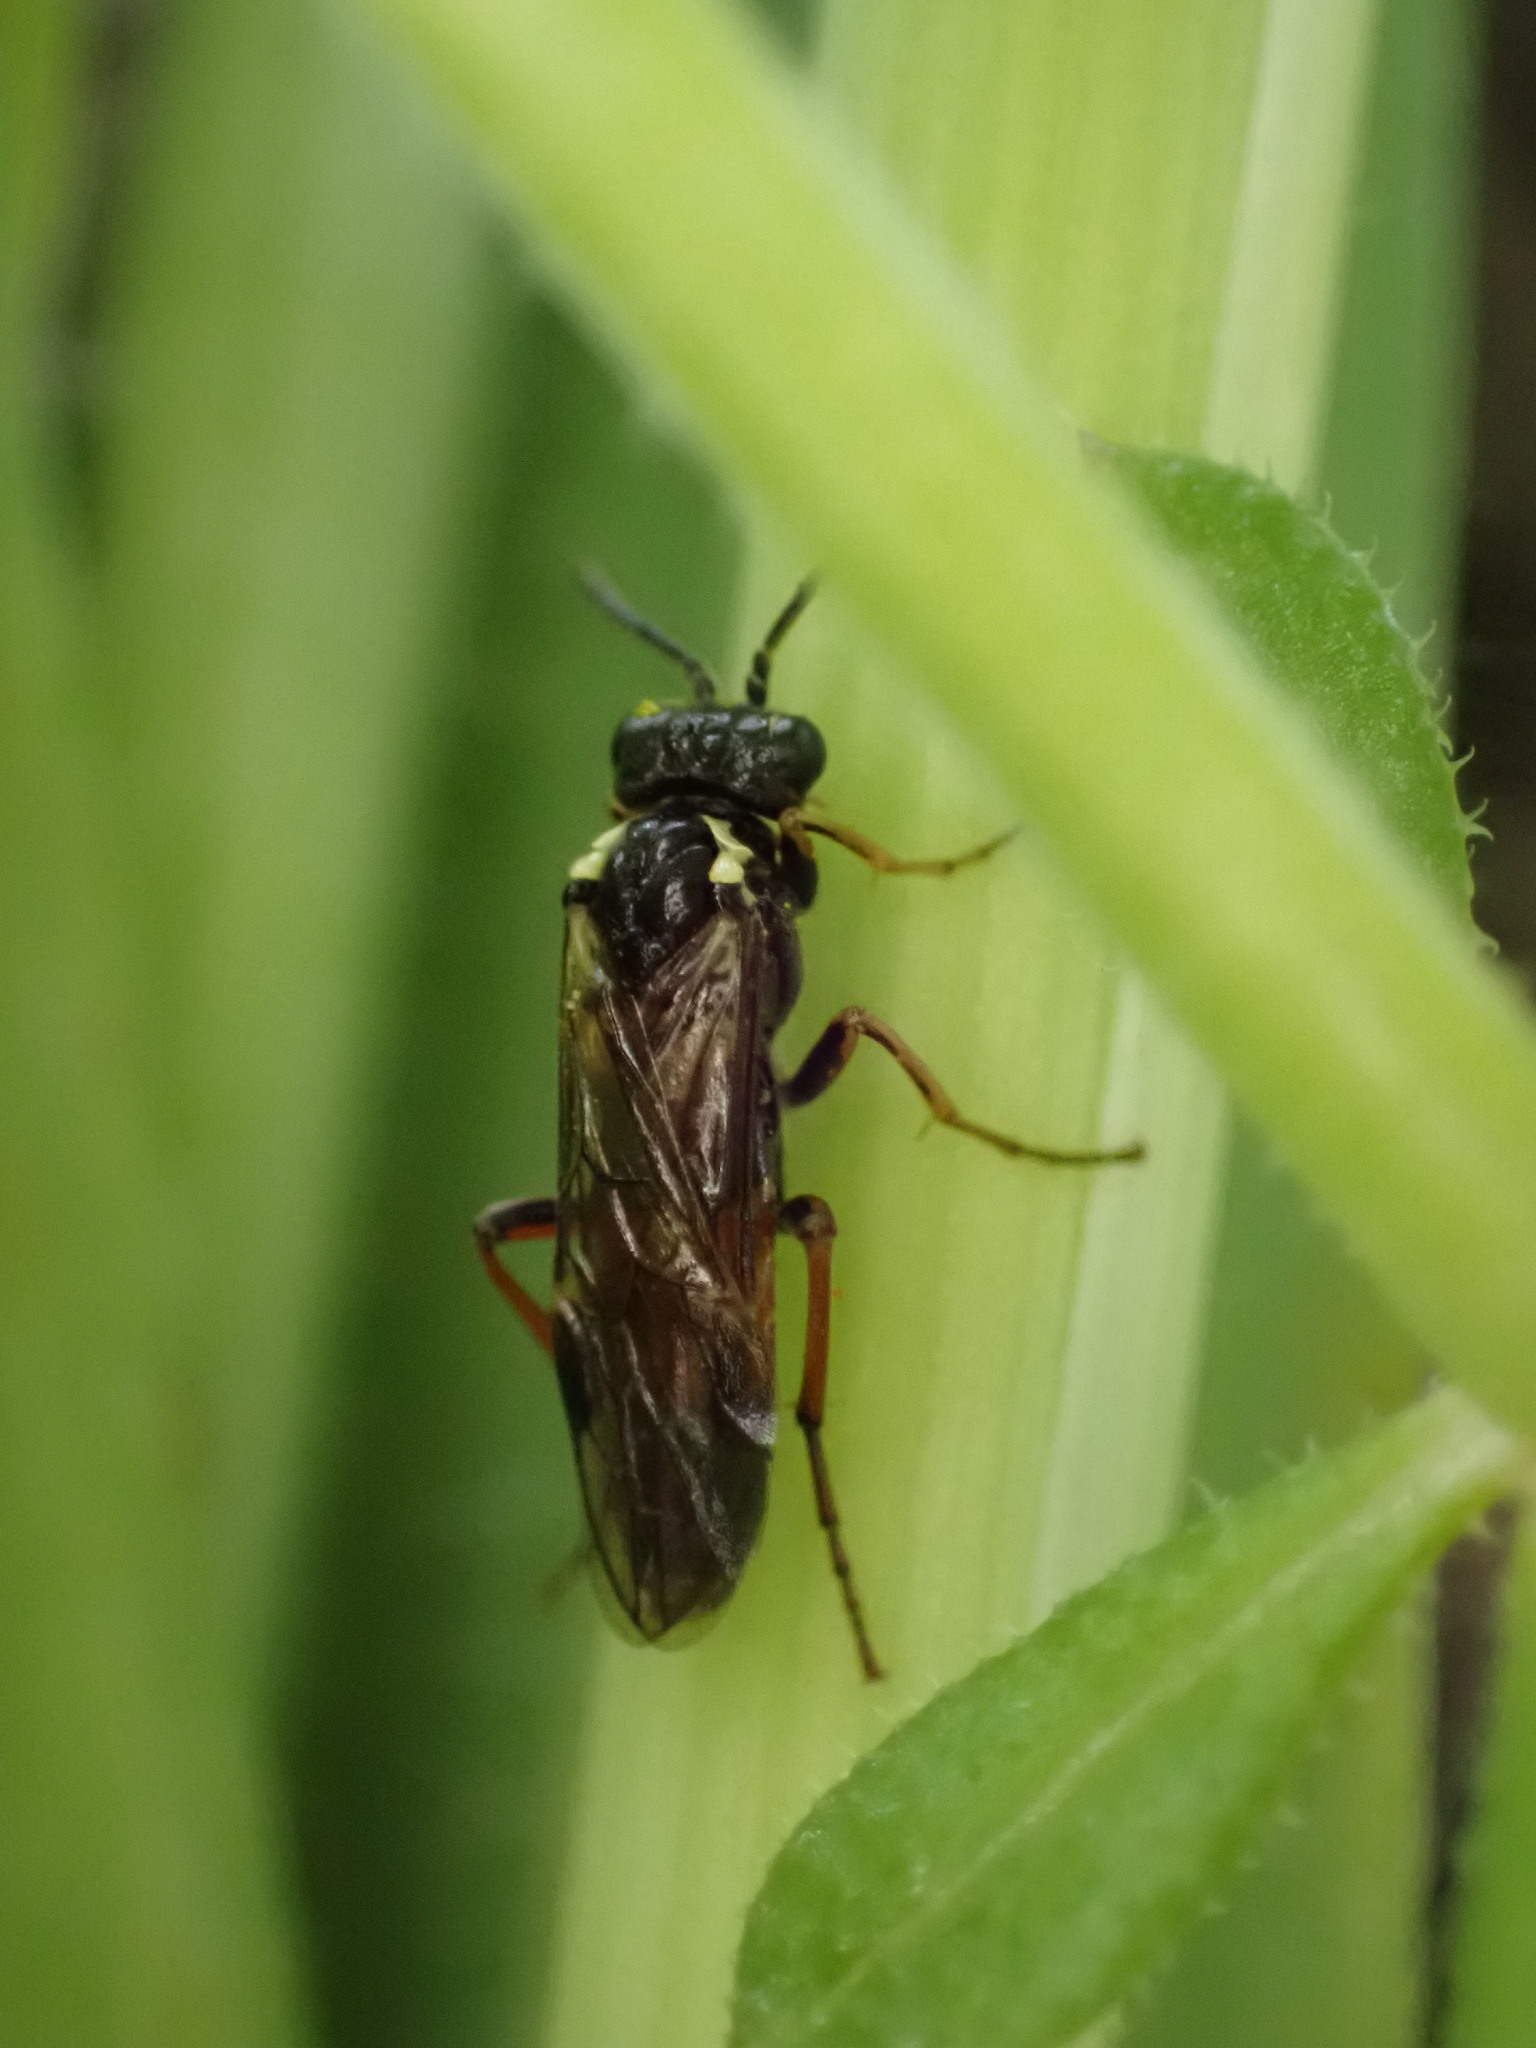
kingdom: Animalia
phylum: Arthropoda
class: Insecta
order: Hymenoptera
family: Tenthredinidae
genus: Aglaostigma
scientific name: Aglaostigma aucupariae
